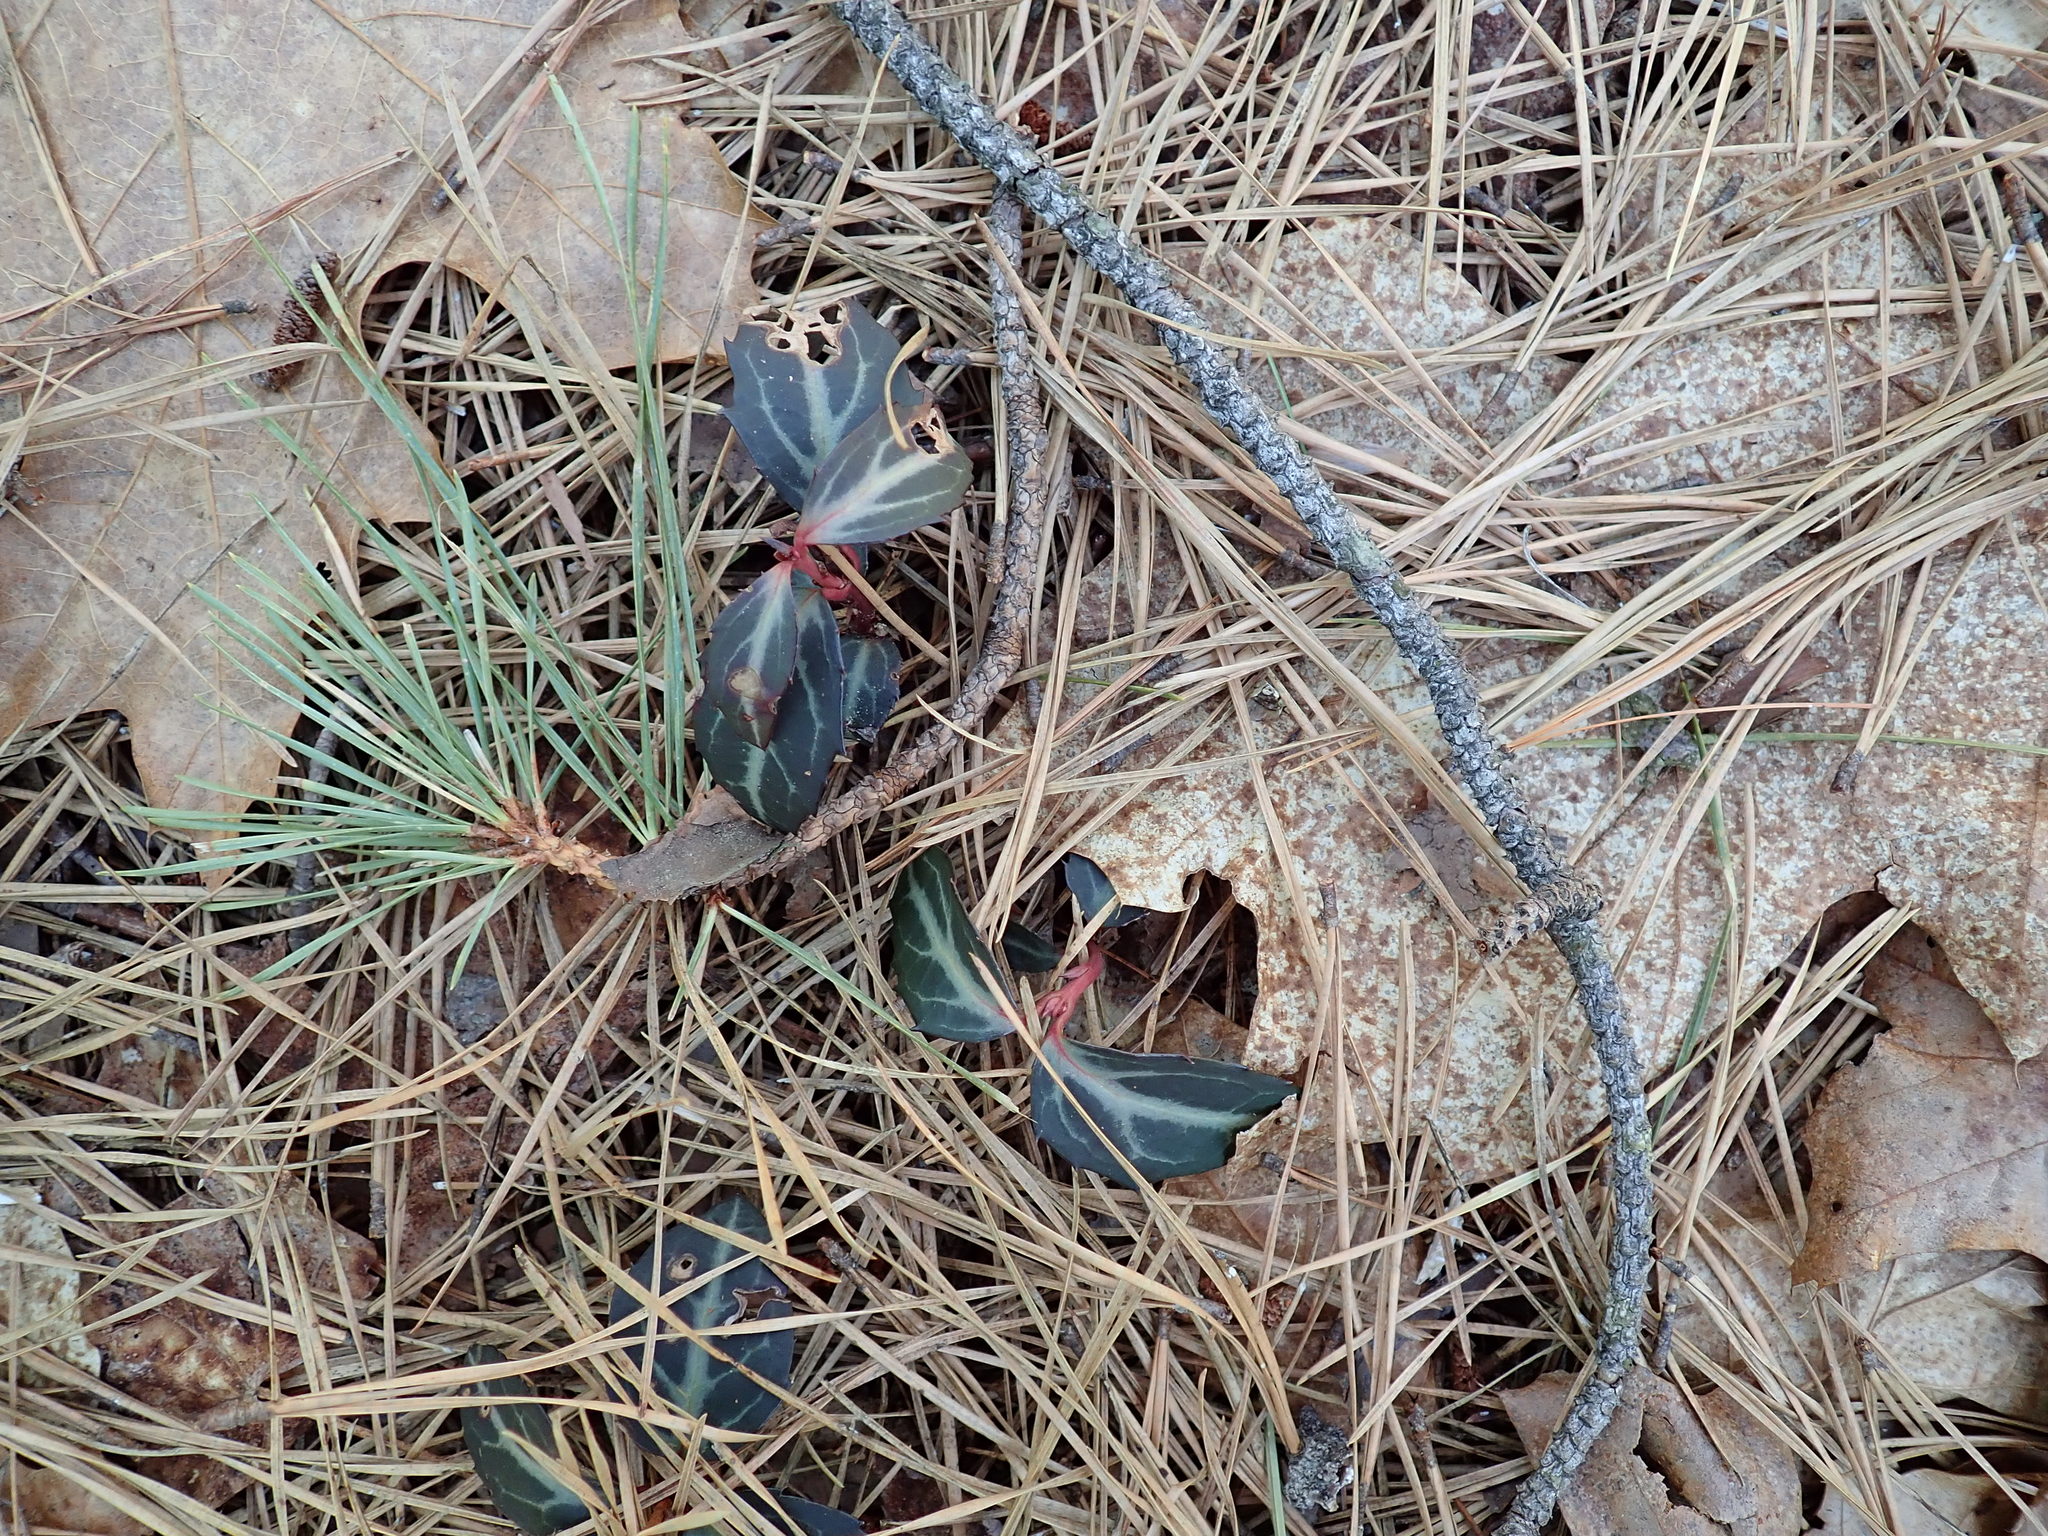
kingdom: Plantae
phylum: Tracheophyta
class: Magnoliopsida
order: Ericales
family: Ericaceae
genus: Chimaphila
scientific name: Chimaphila maculata
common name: Spotted pipsissewa
